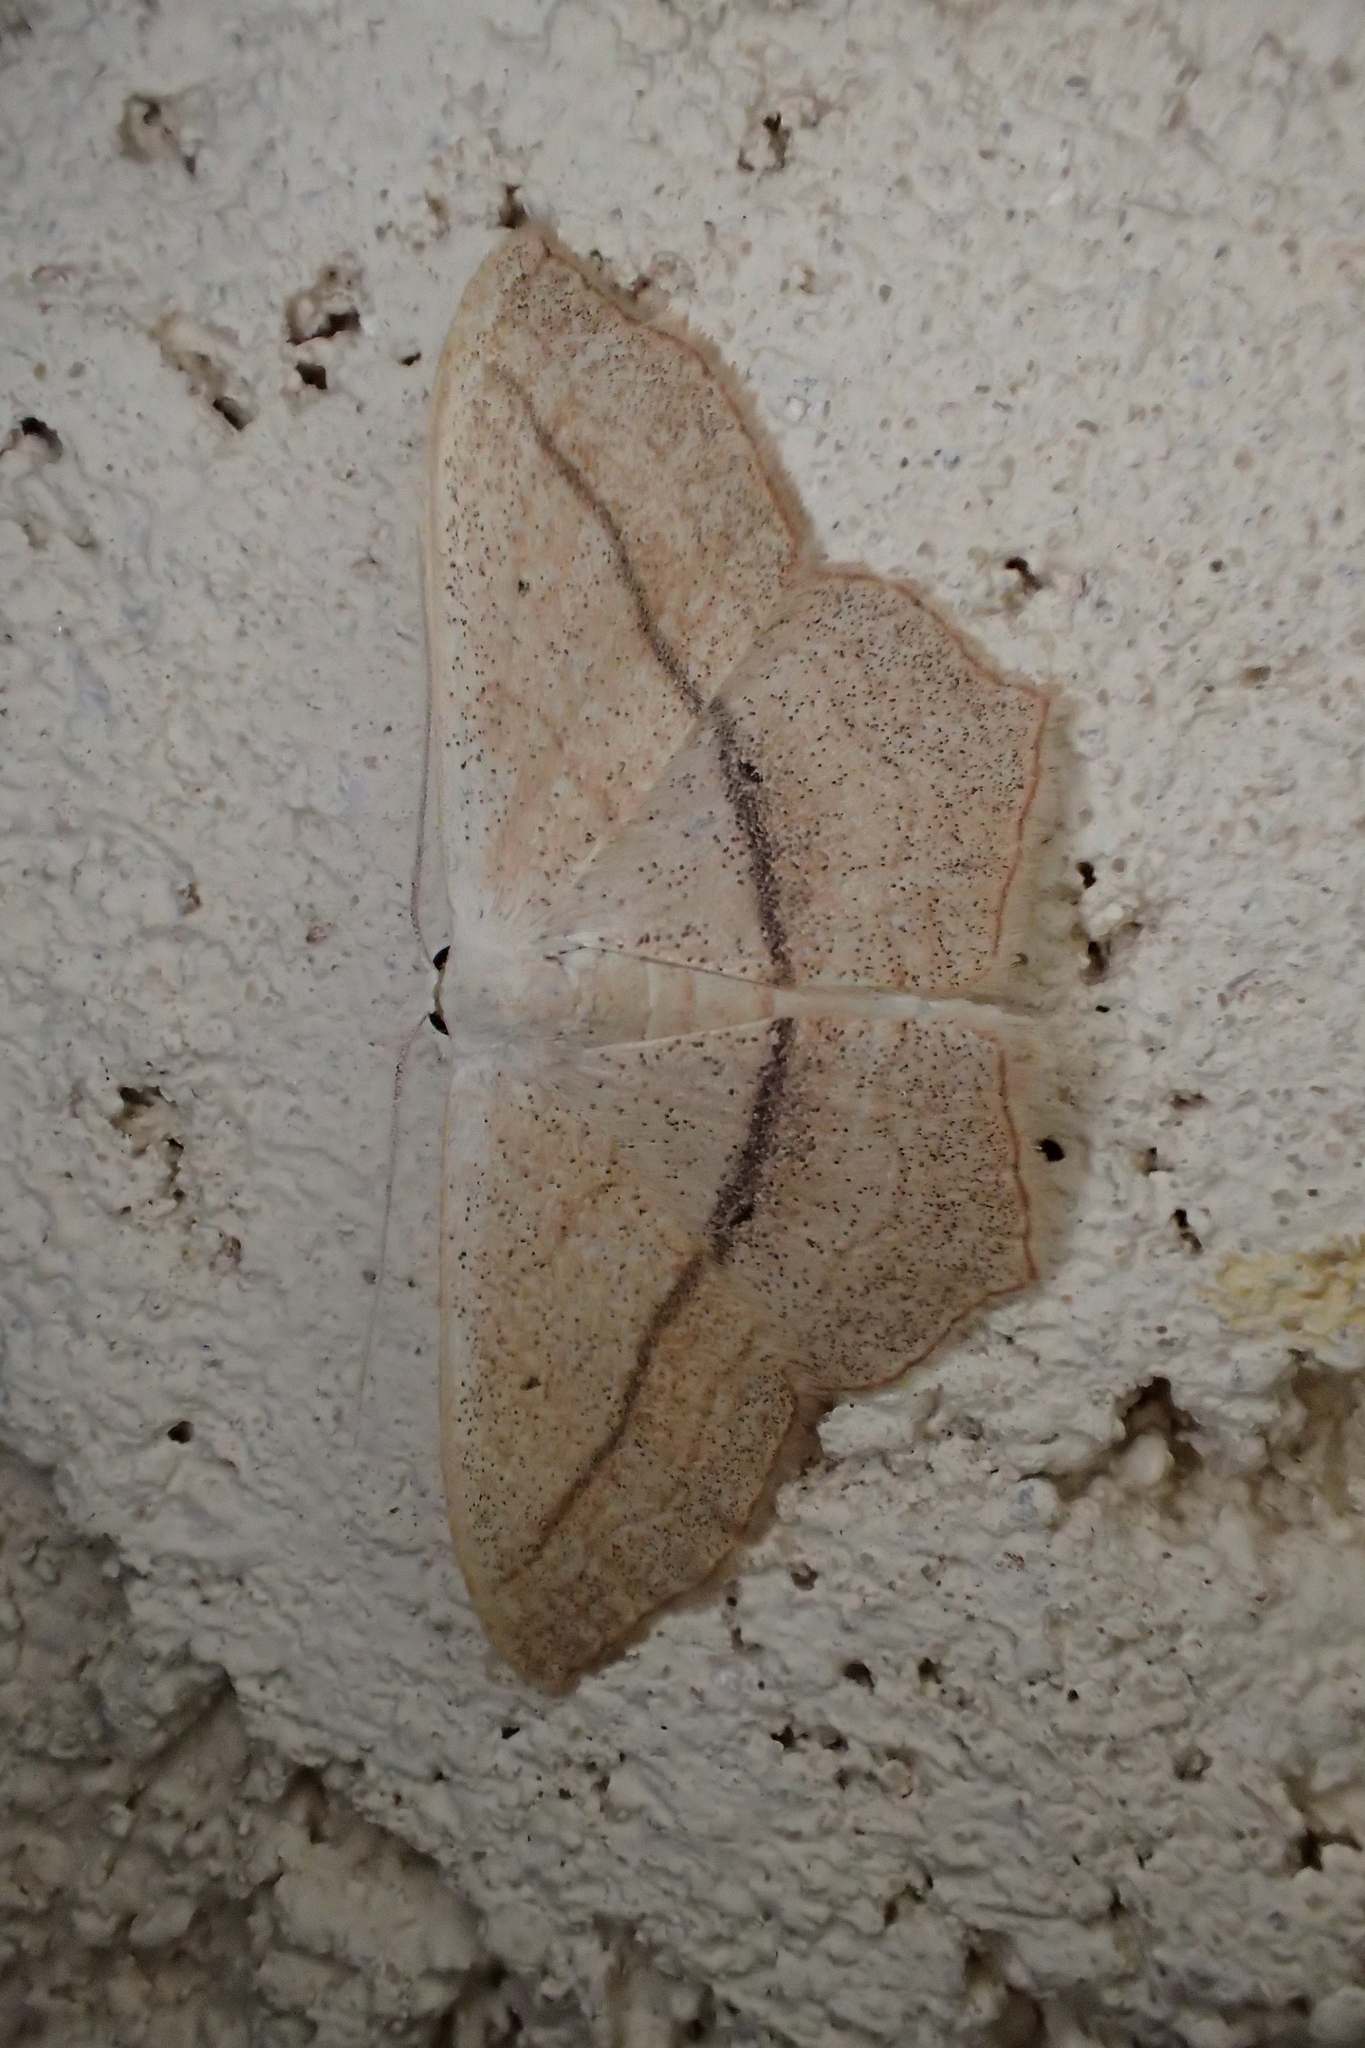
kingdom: Animalia
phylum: Arthropoda
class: Insecta
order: Lepidoptera
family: Geometridae
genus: Scopula
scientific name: Scopula imitaria
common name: Small blood-vein
